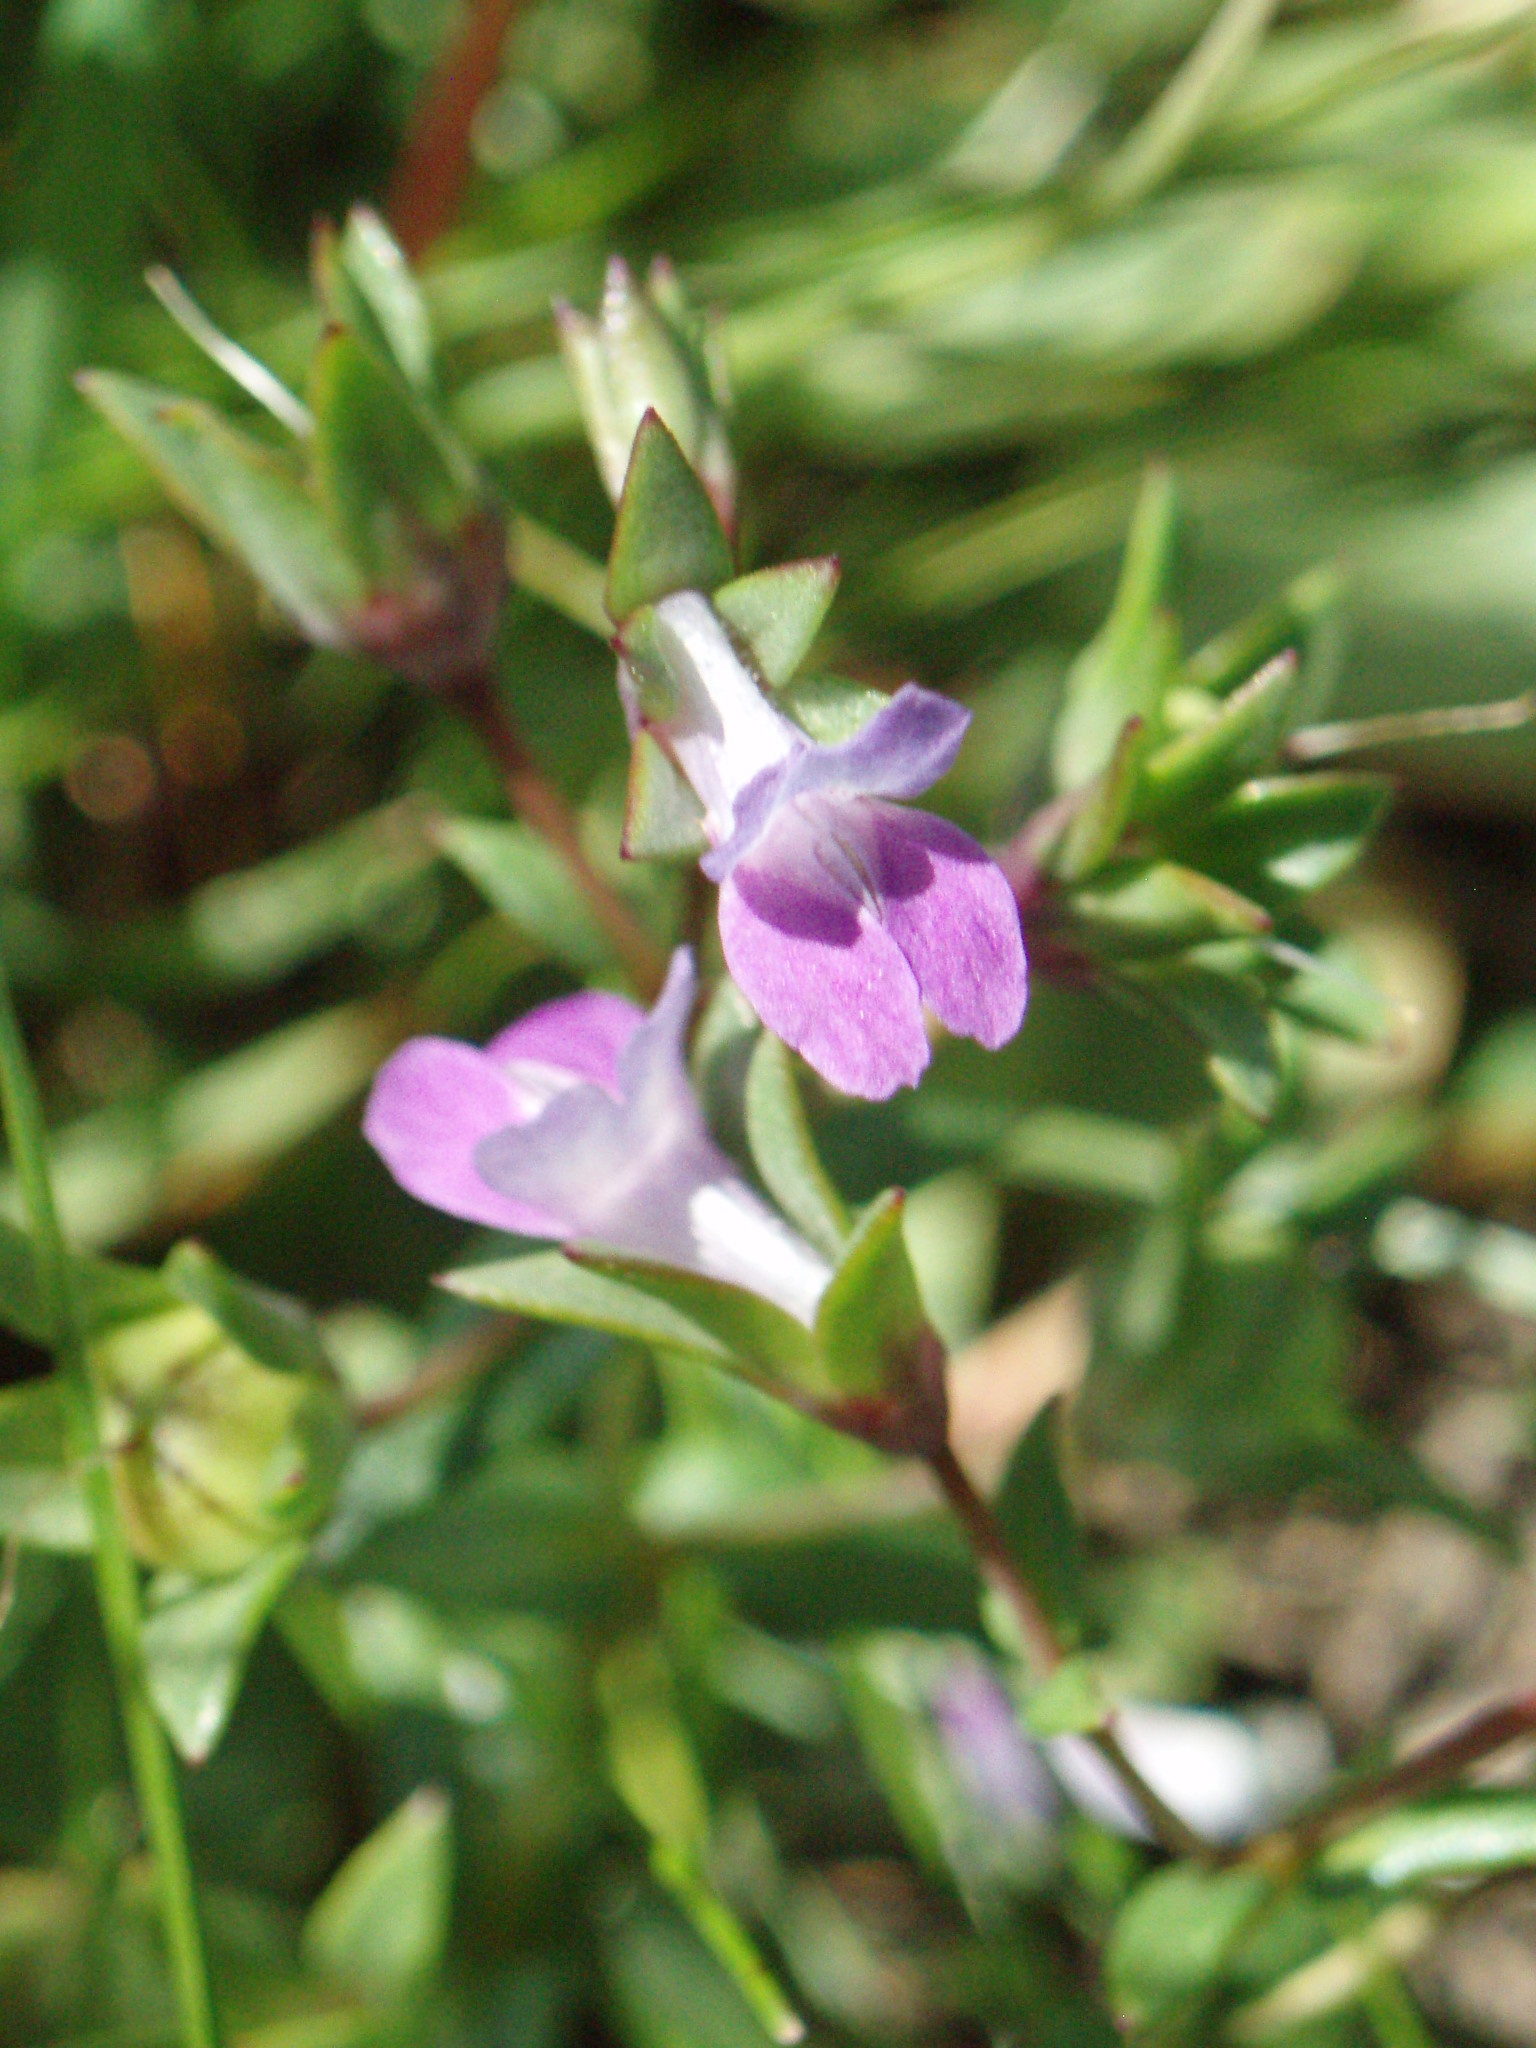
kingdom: Plantae
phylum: Tracheophyta
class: Magnoliopsida
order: Lamiales
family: Plantaginaceae
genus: Collinsia
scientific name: Collinsia sparsiflora
